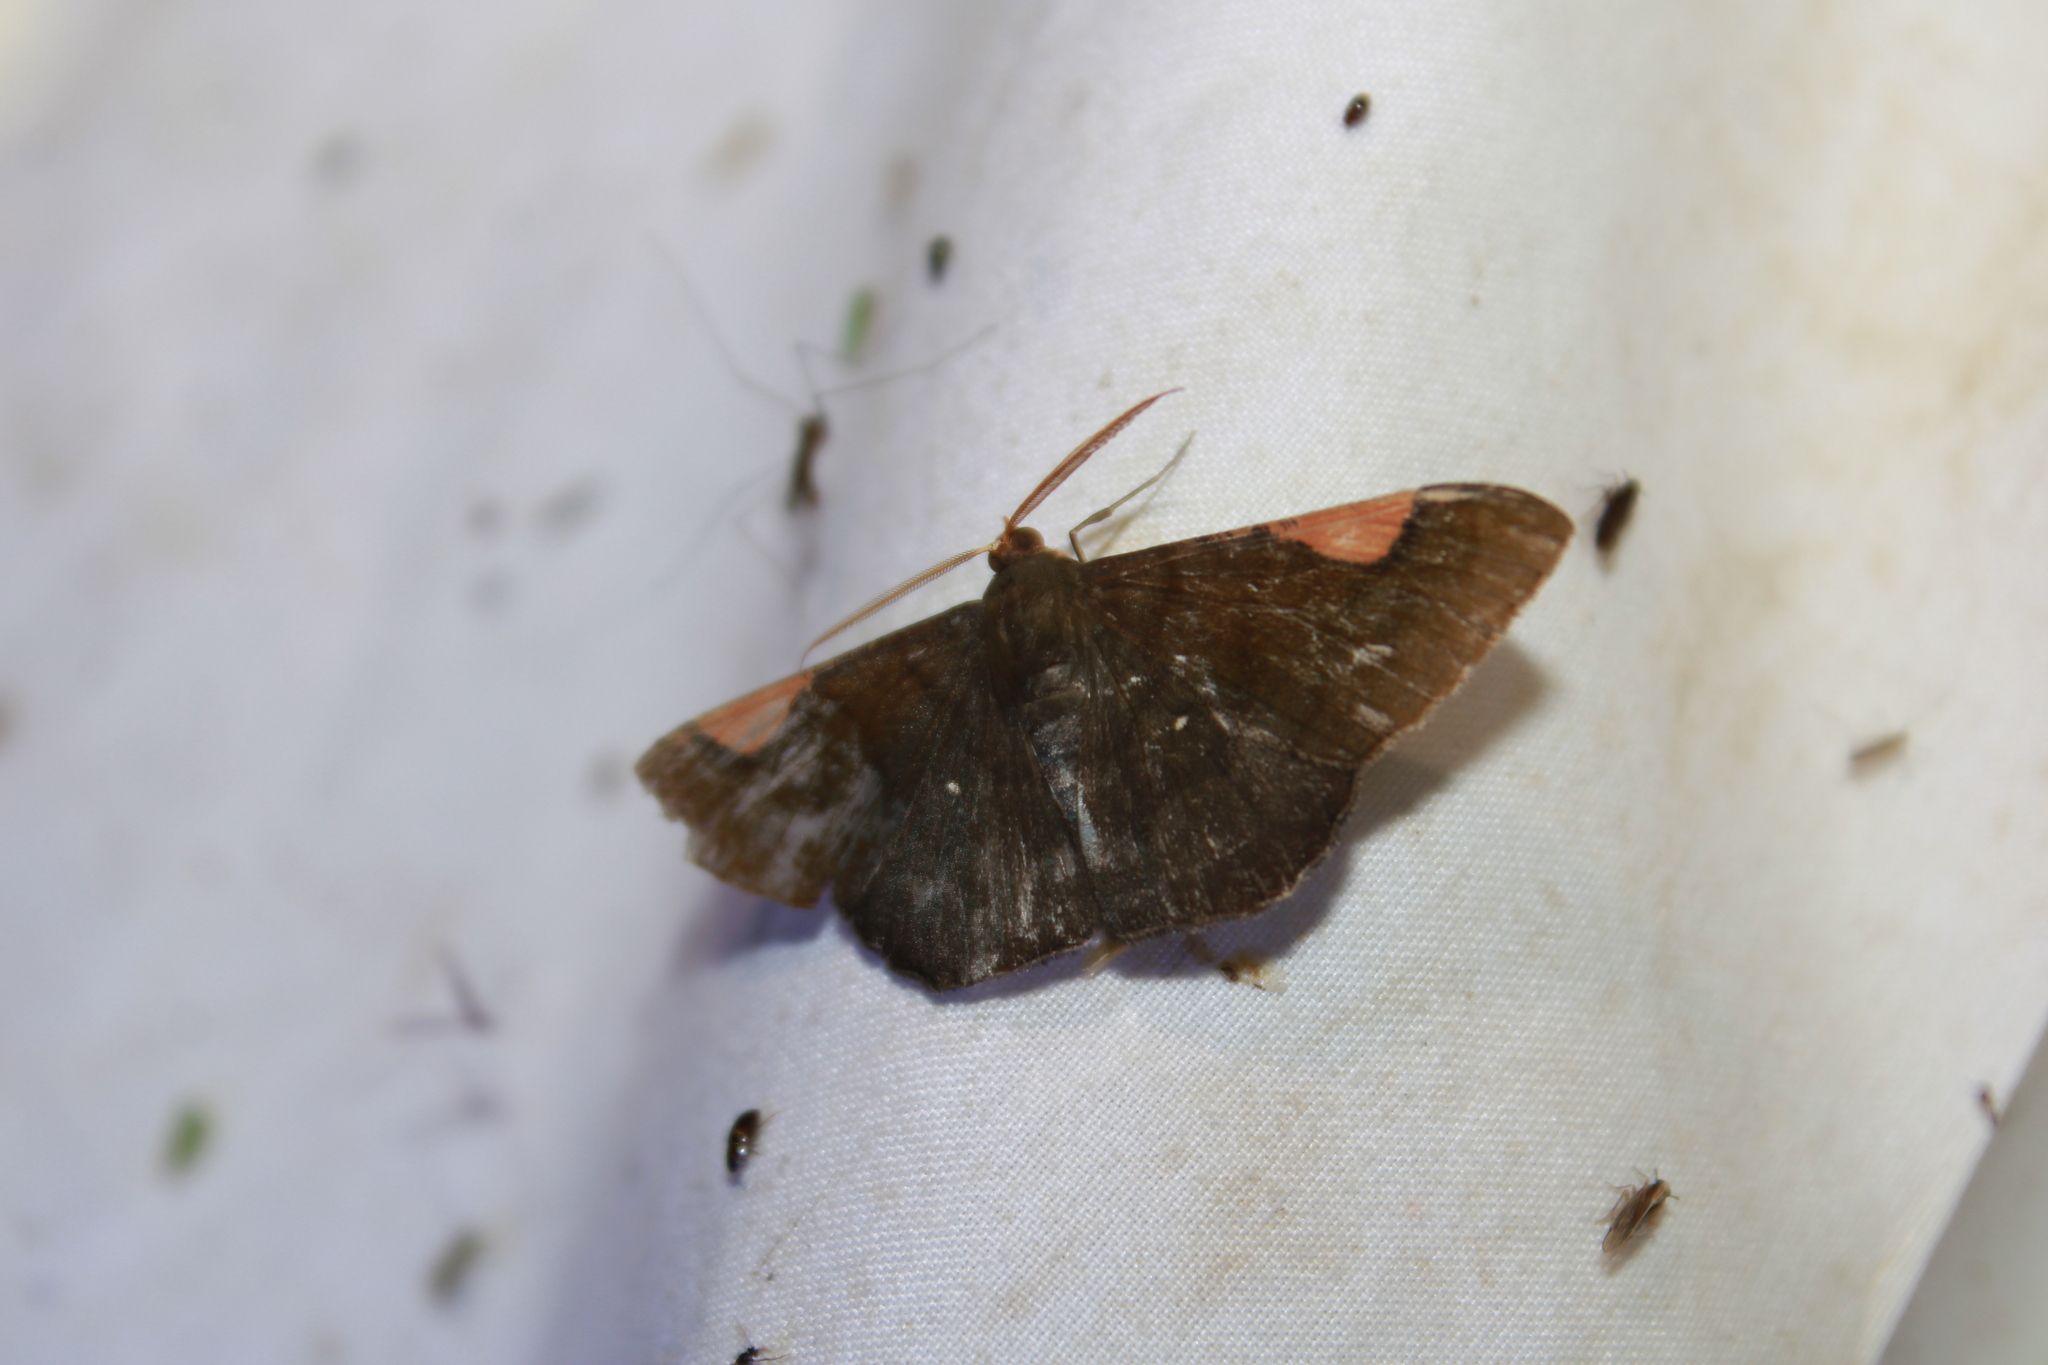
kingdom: Animalia
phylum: Arthropoda
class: Insecta
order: Lepidoptera
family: Geometridae
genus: Sphacelodes
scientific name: Sphacelodes vulneraria
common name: Looper moth
